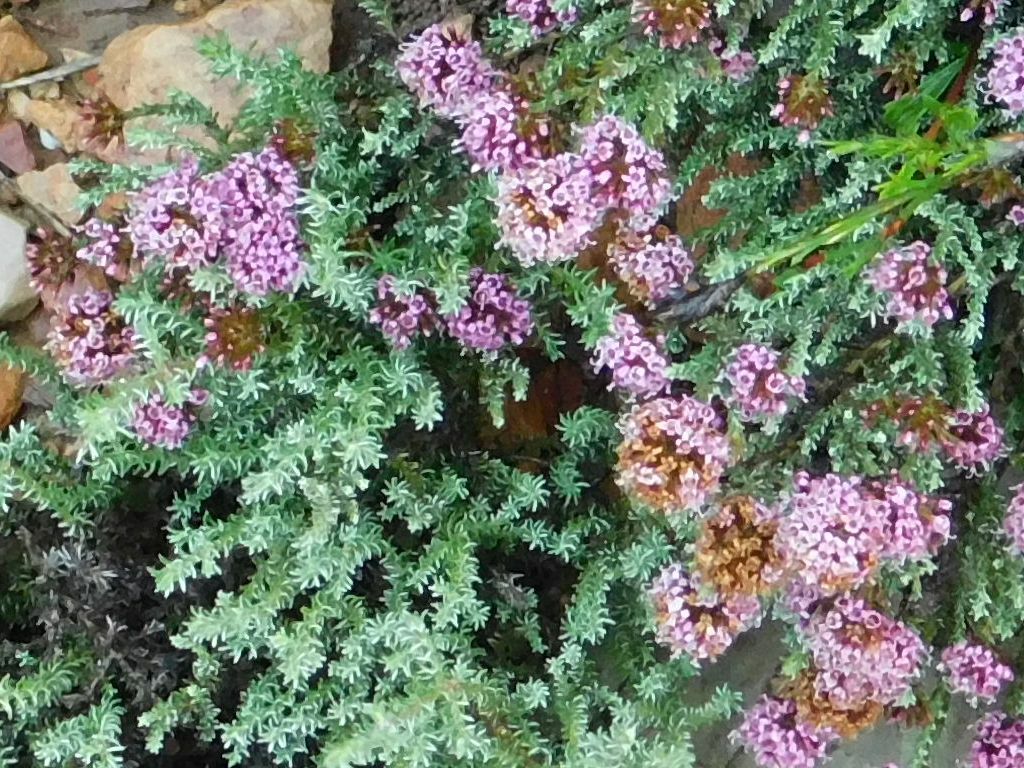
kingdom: Plantae
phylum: Tracheophyta
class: Magnoliopsida
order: Asterales
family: Asteraceae
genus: Stoebe
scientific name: Stoebe fusca
